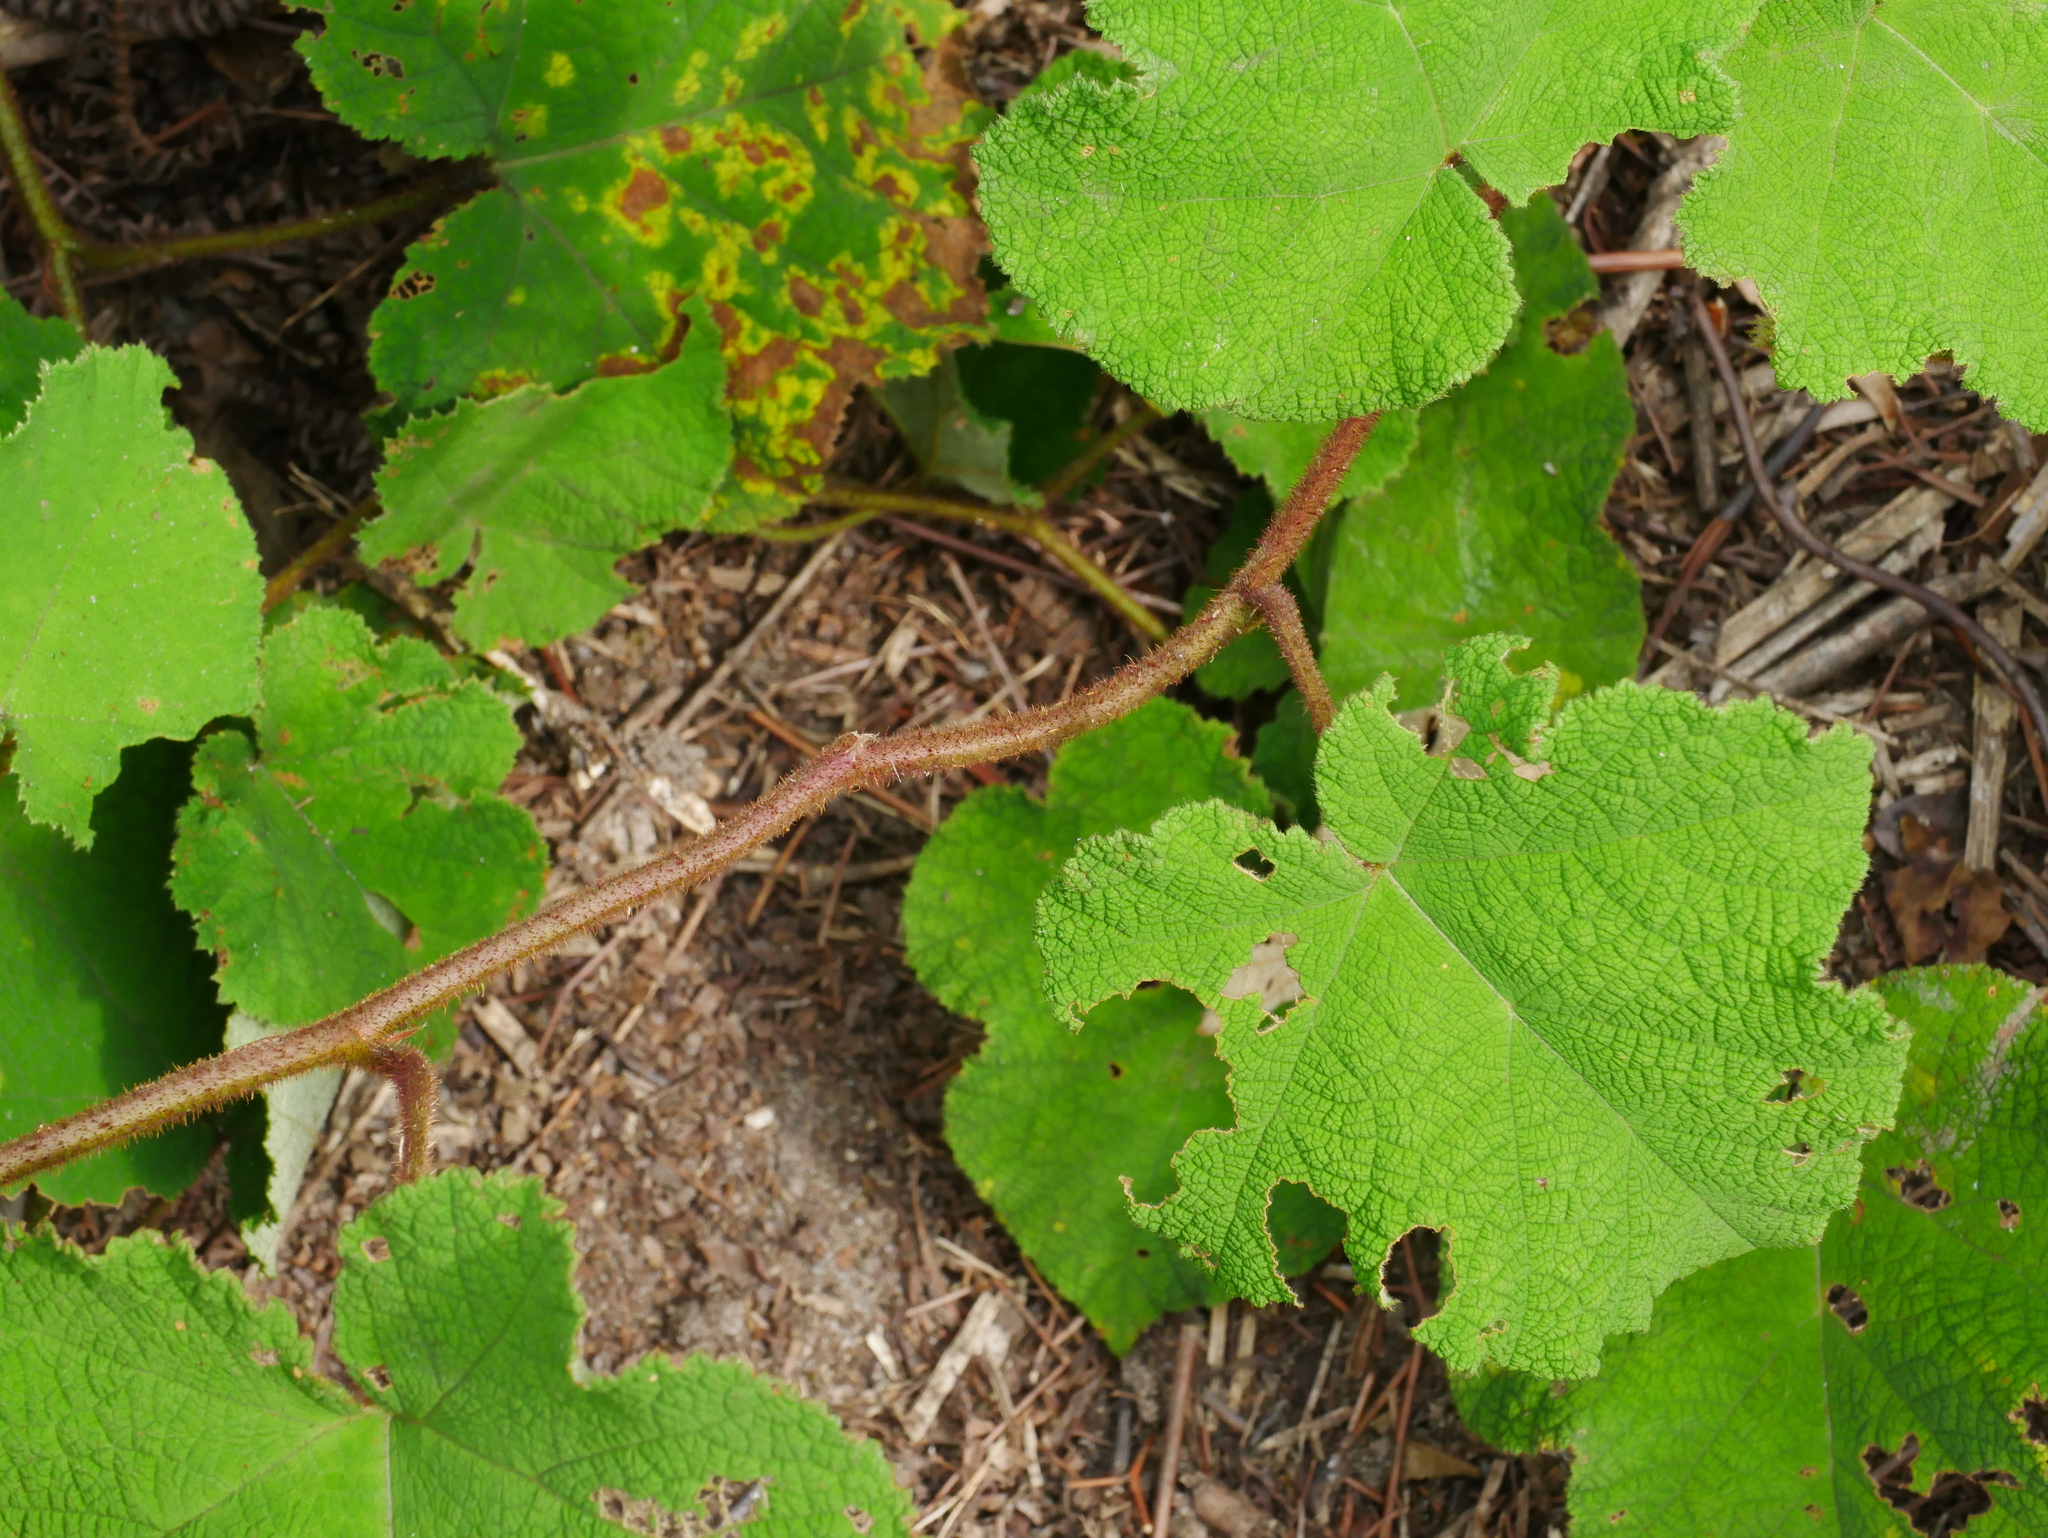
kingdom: Plantae
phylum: Tracheophyta
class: Magnoliopsida
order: Rosales
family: Rosaceae
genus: Rubus
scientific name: Rubus amphidasys
